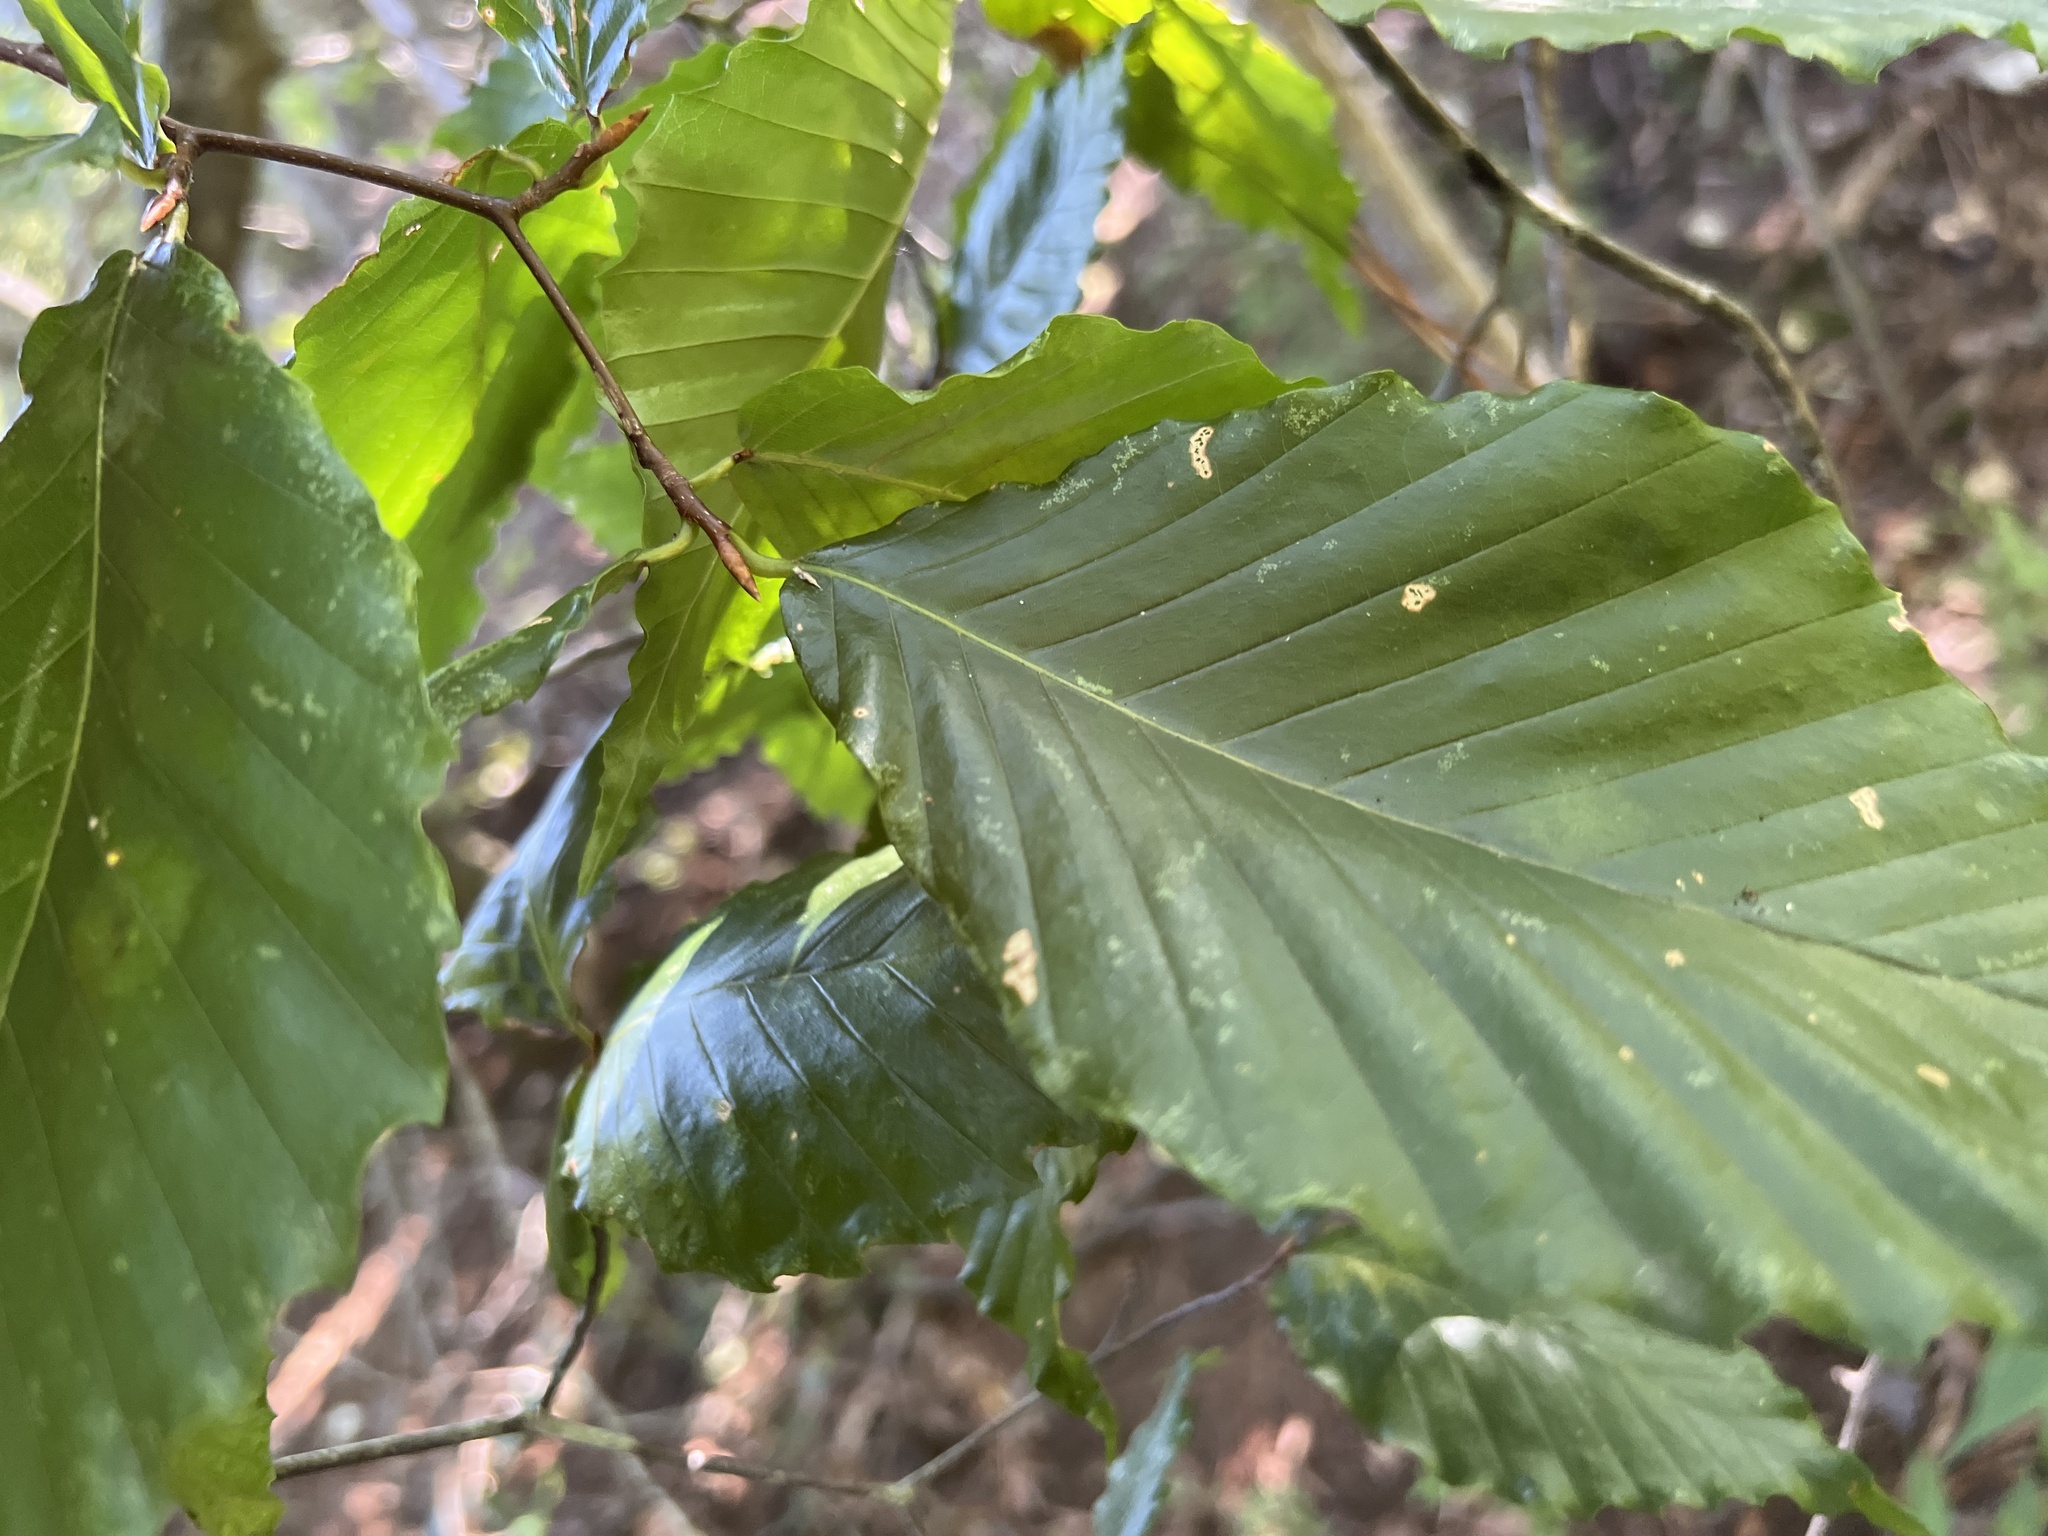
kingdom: Plantae
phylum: Tracheophyta
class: Magnoliopsida
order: Fagales
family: Fagaceae
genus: Fagus
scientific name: Fagus grandifolia
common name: American beech
